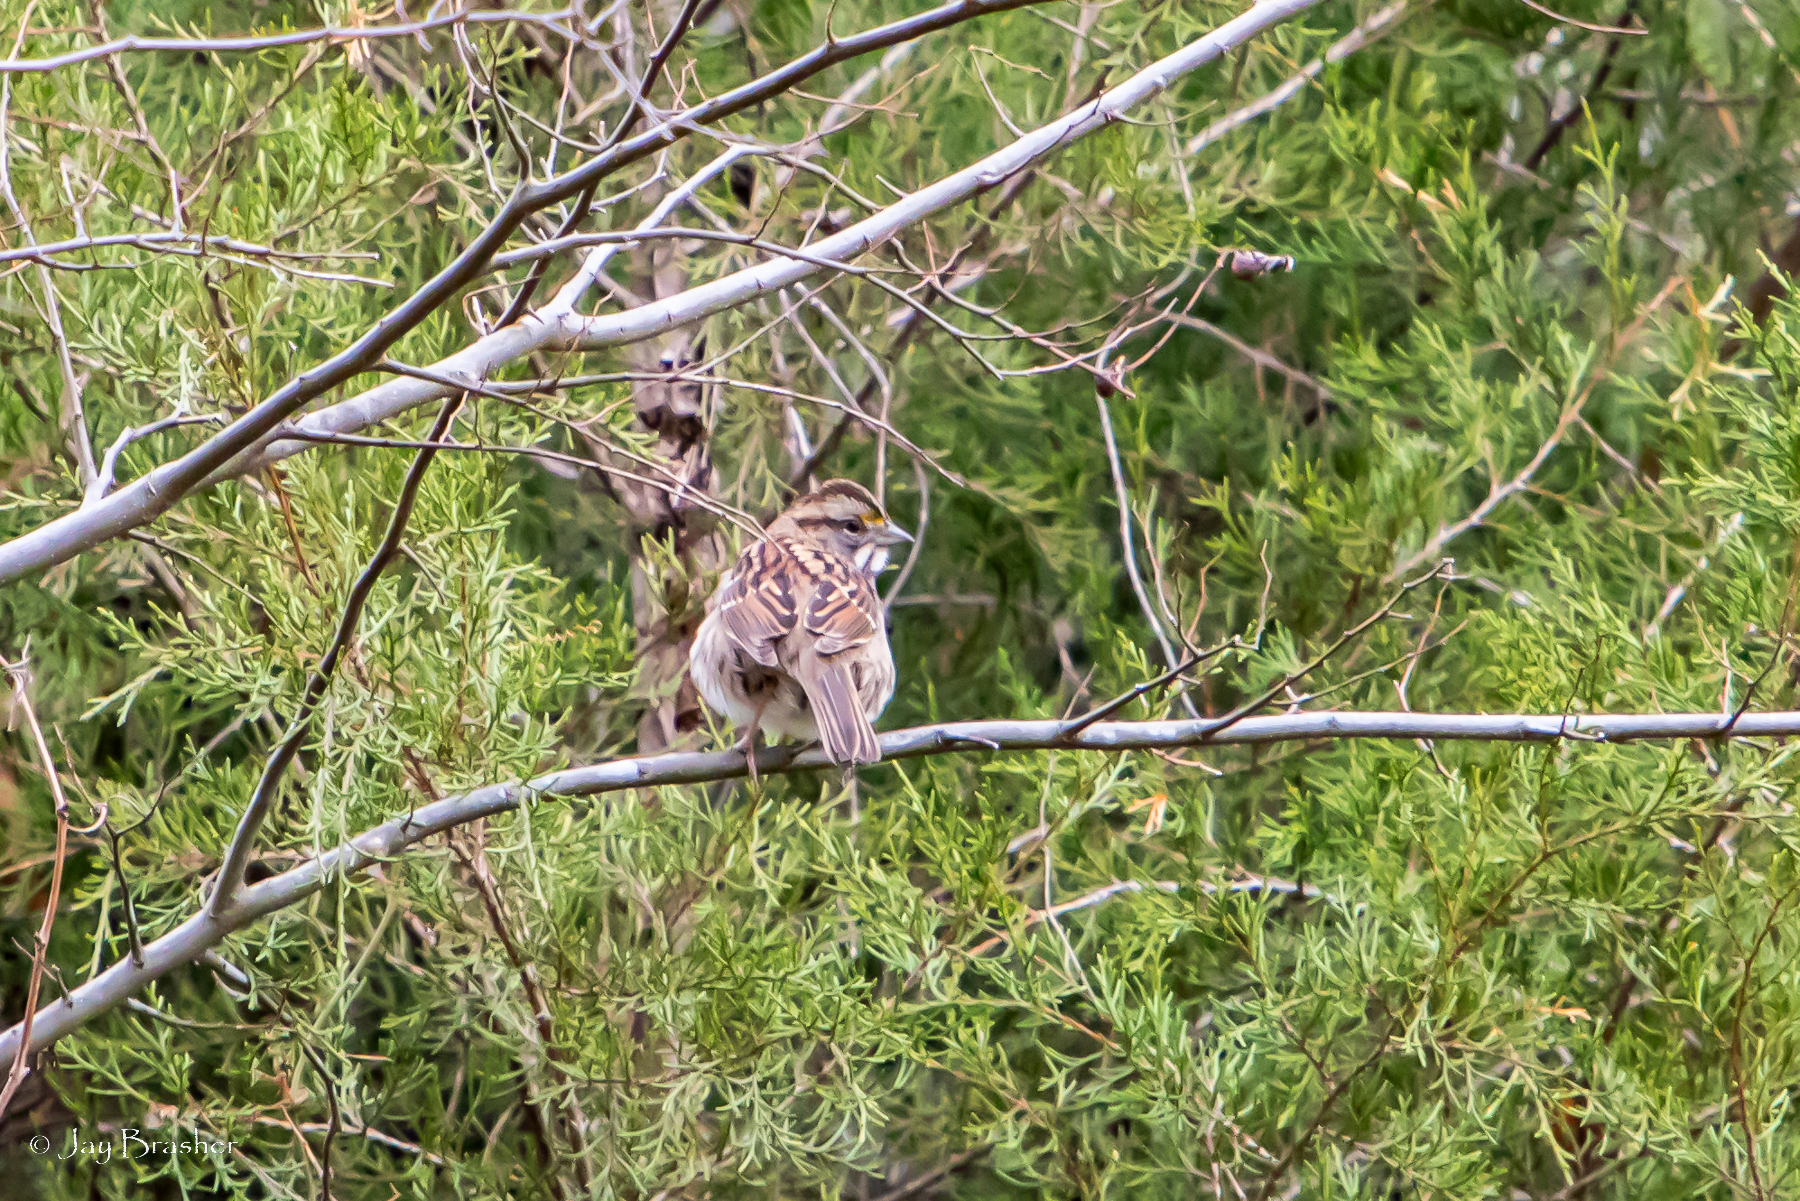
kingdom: Animalia
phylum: Chordata
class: Aves
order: Passeriformes
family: Passerellidae
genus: Zonotrichia
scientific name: Zonotrichia albicollis
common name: White-throated sparrow
